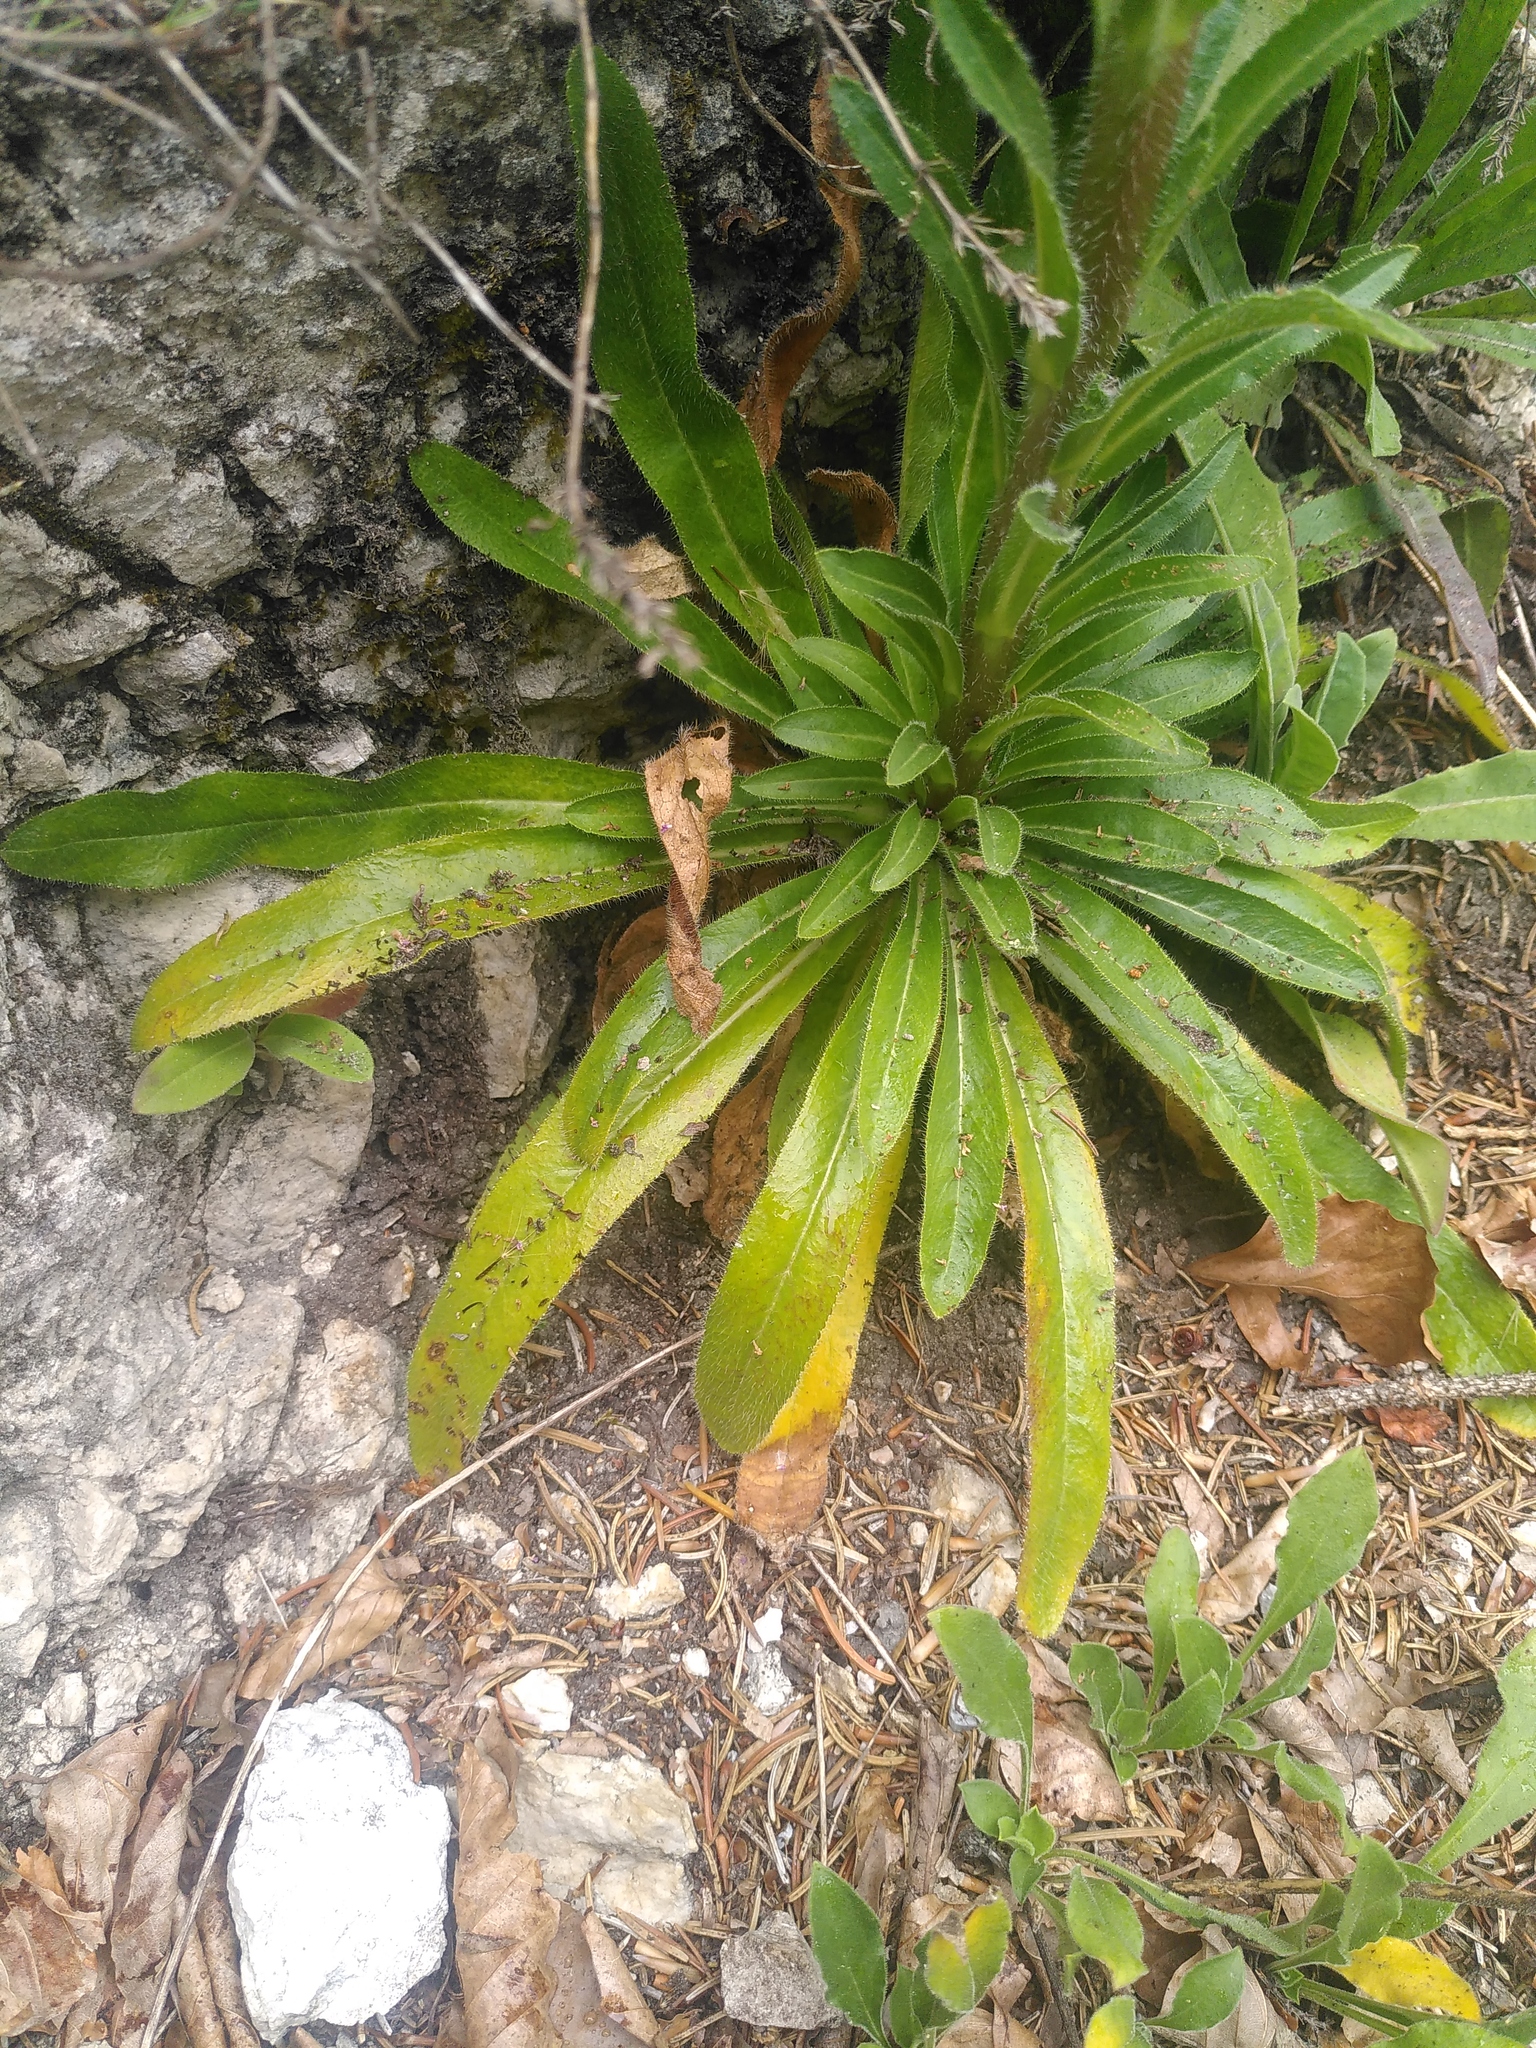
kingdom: Plantae
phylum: Tracheophyta
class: Magnoliopsida
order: Asterales
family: Campanulaceae
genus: Campanula
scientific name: Campanula thyrsoides
